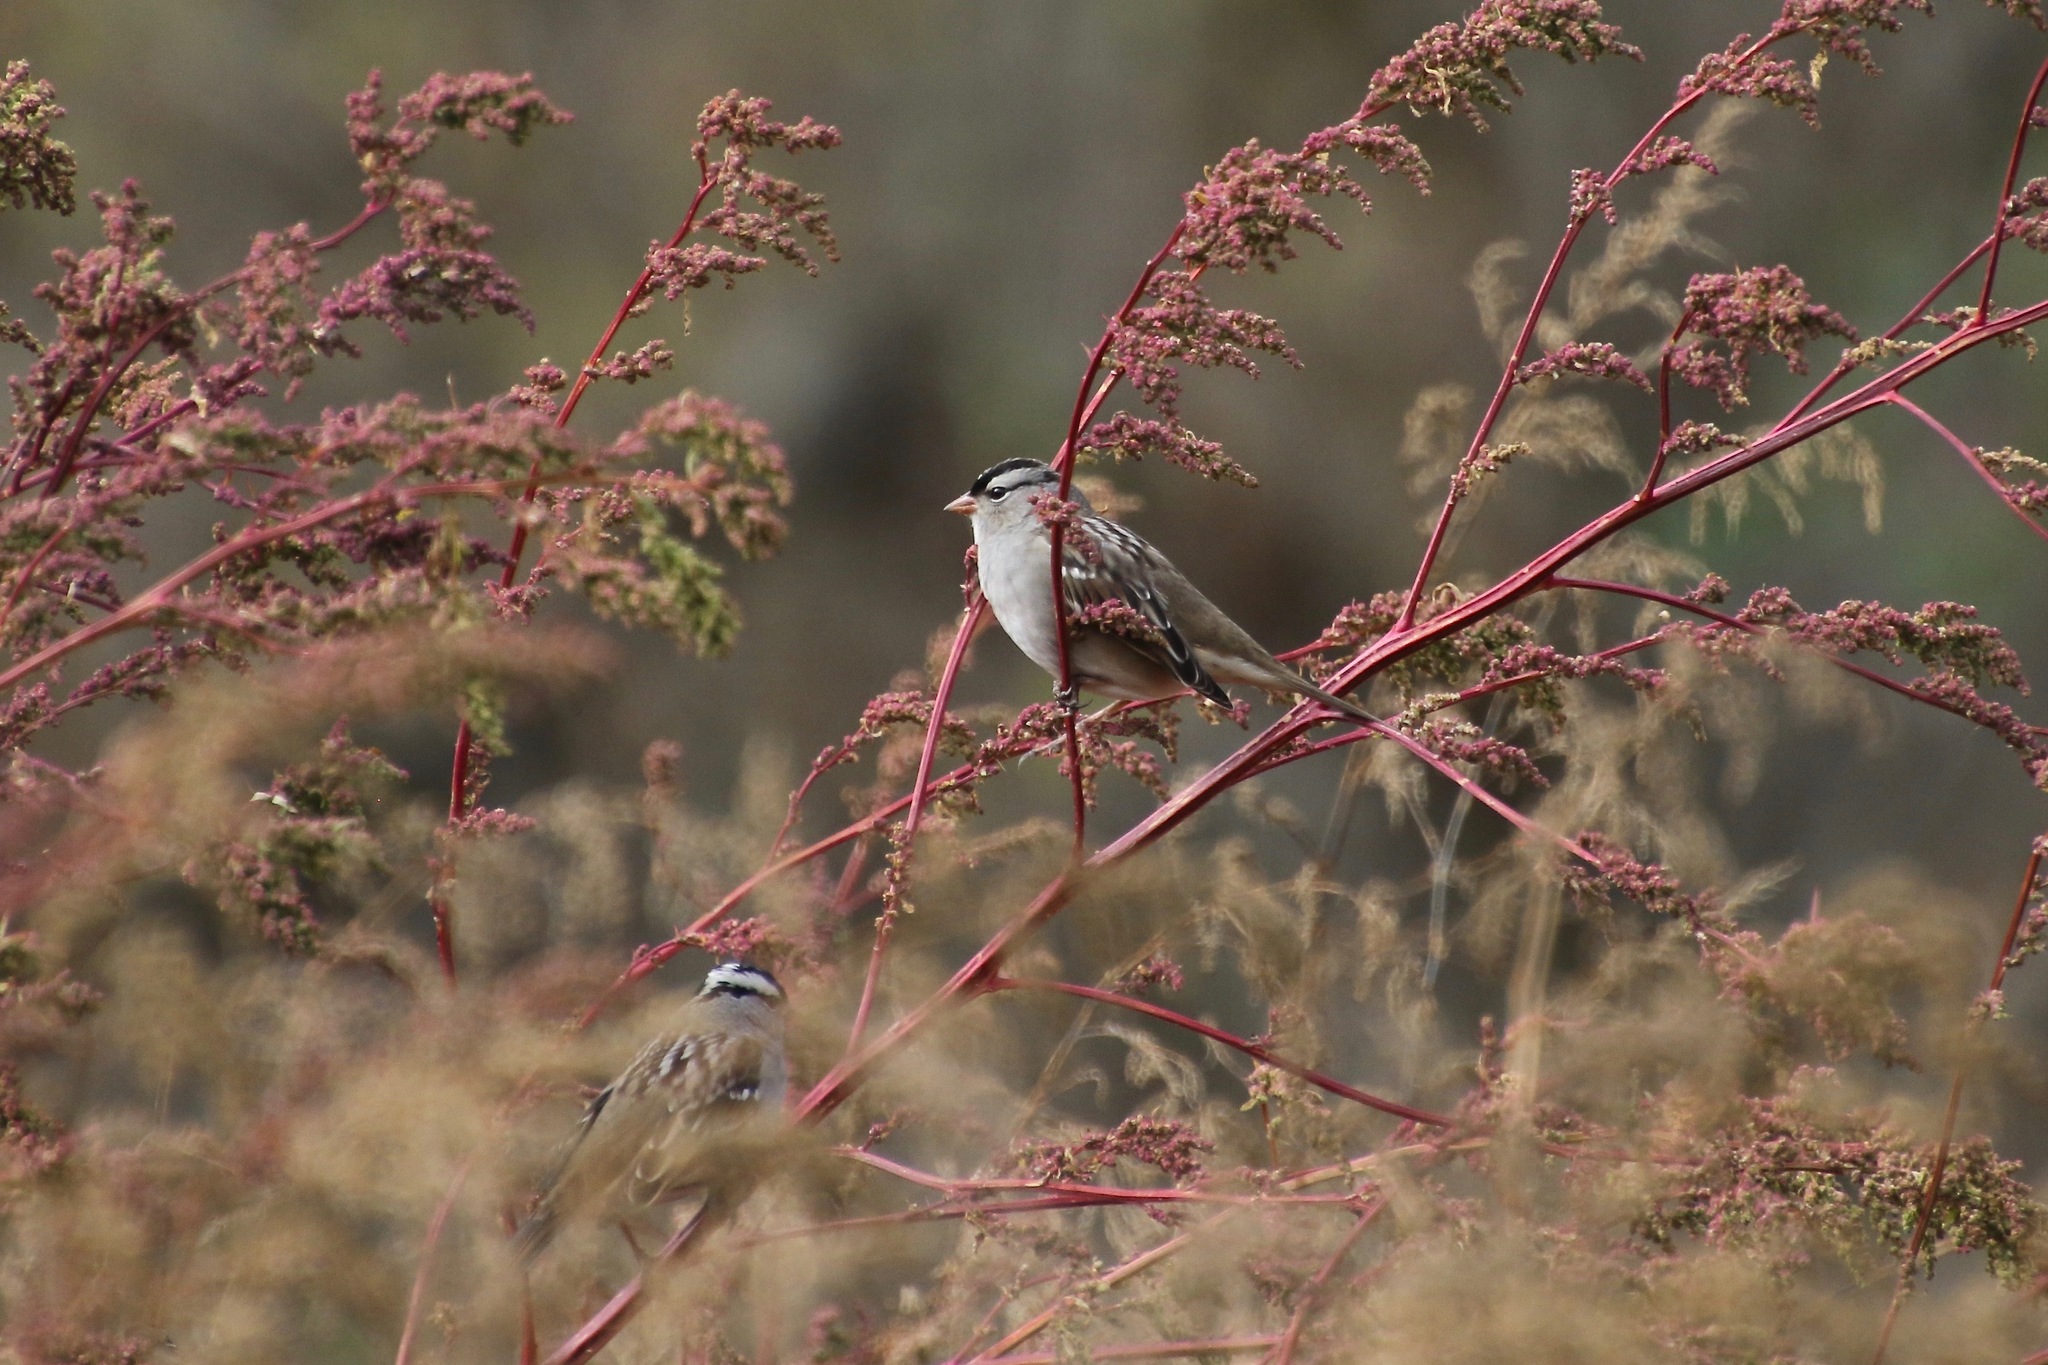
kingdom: Animalia
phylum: Chordata
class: Aves
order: Passeriformes
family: Passerellidae
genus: Zonotrichia
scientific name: Zonotrichia leucophrys
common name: White-crowned sparrow
